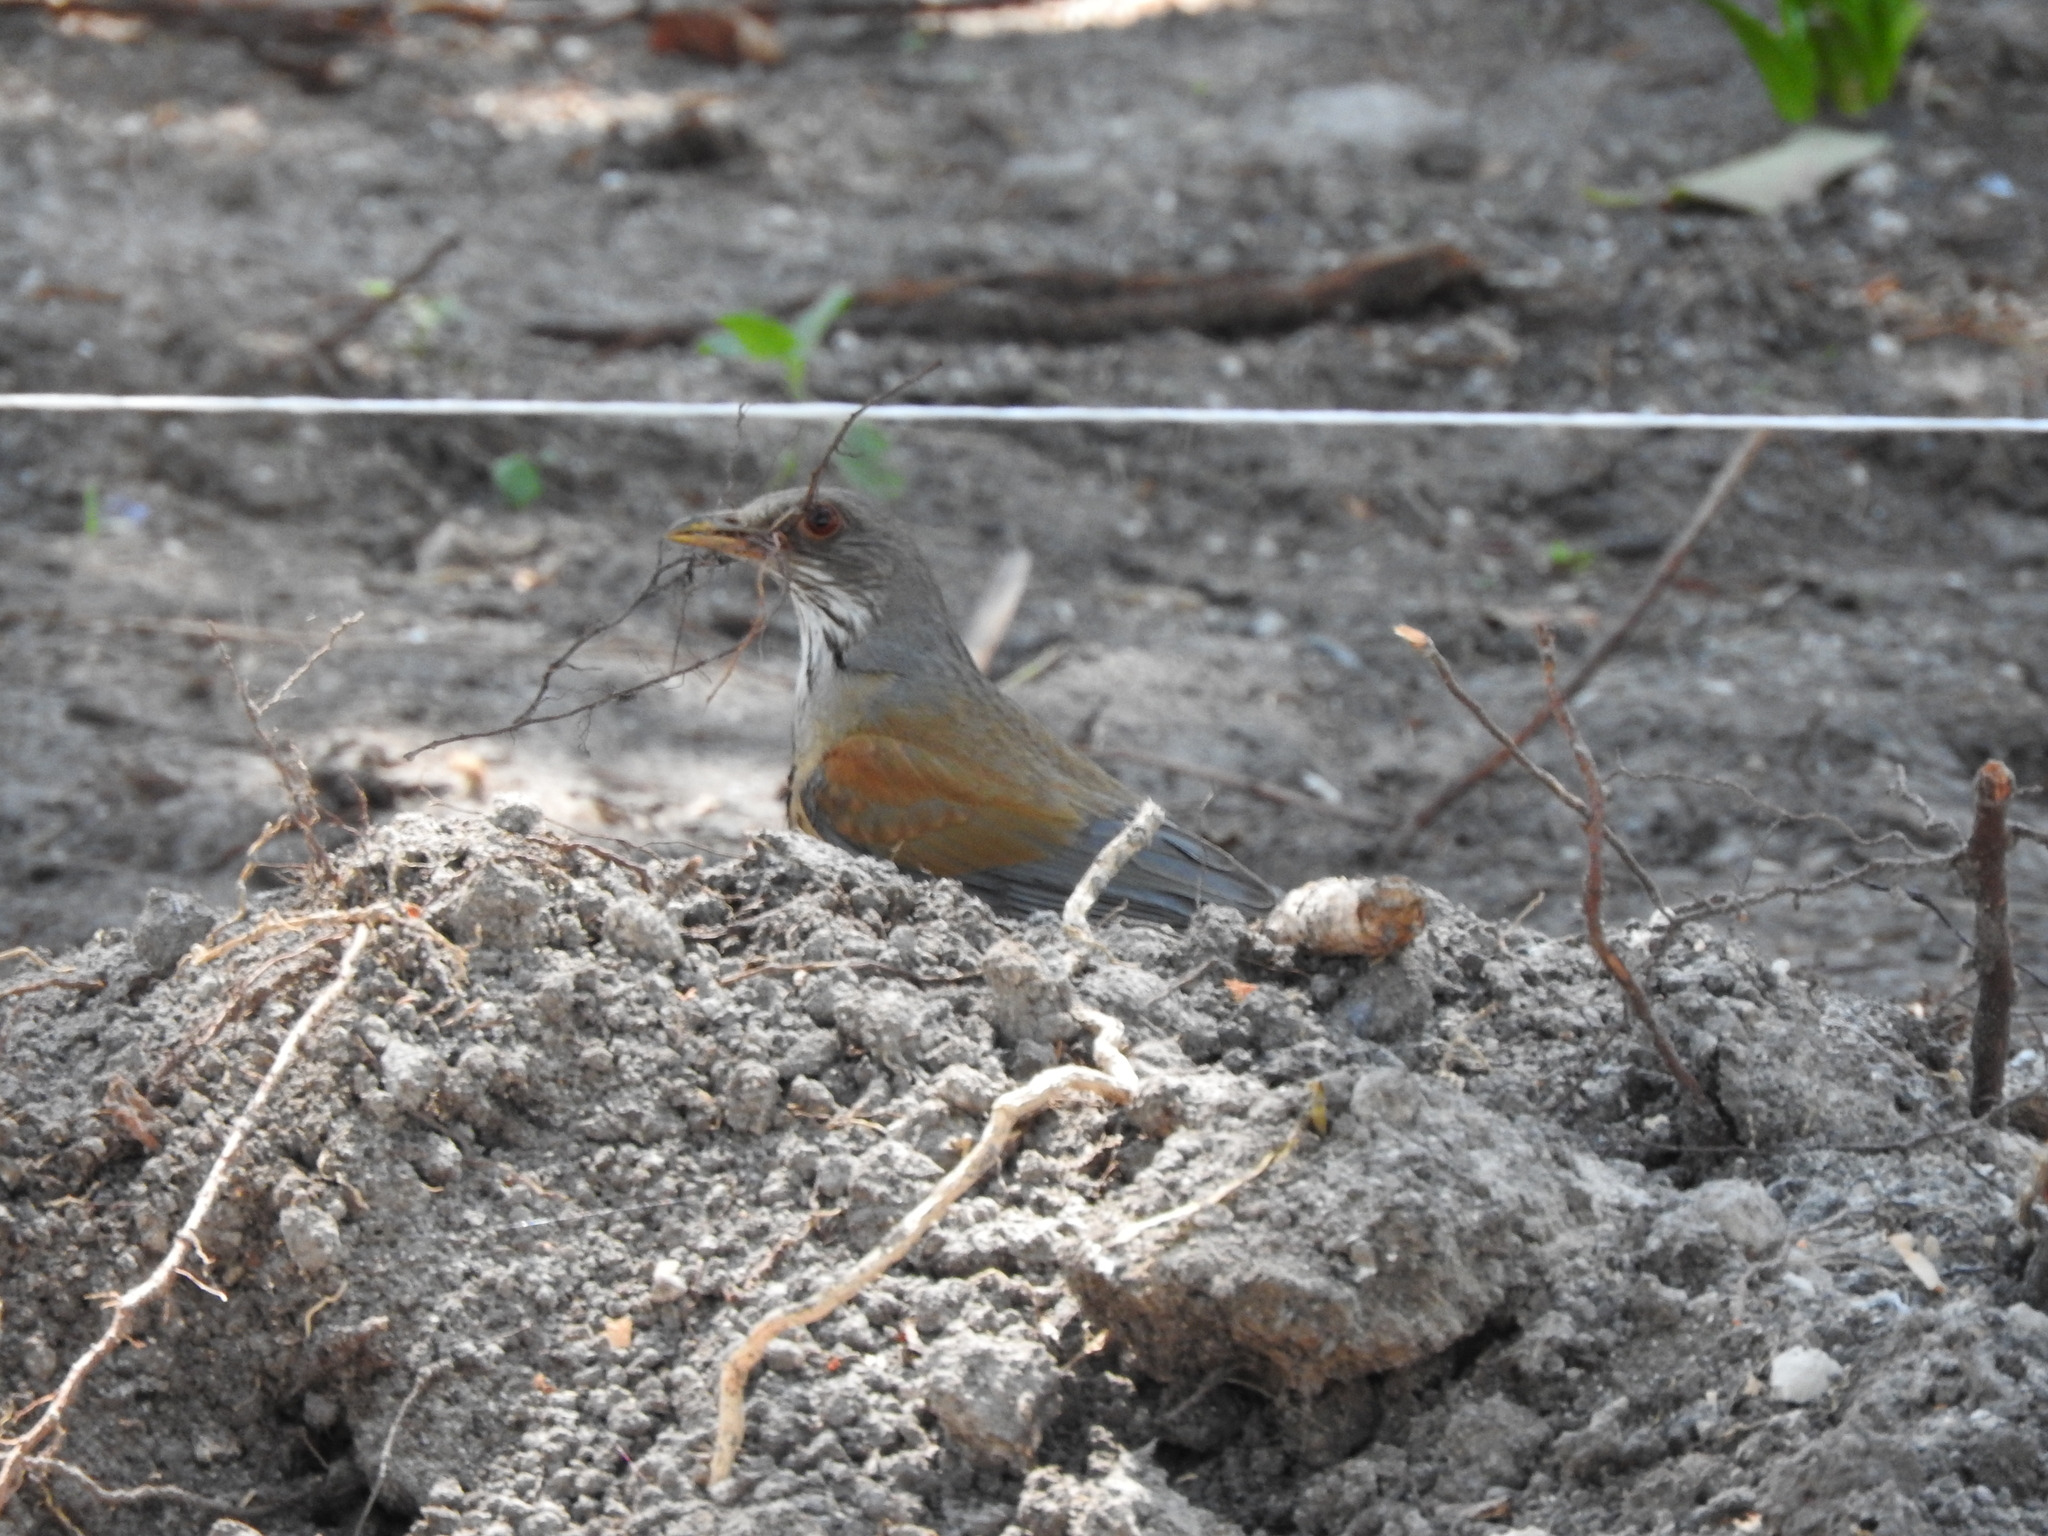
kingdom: Animalia
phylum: Chordata
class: Aves
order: Passeriformes
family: Turdidae
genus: Turdus
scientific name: Turdus rufopalliatus
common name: Rufous-backed robin
